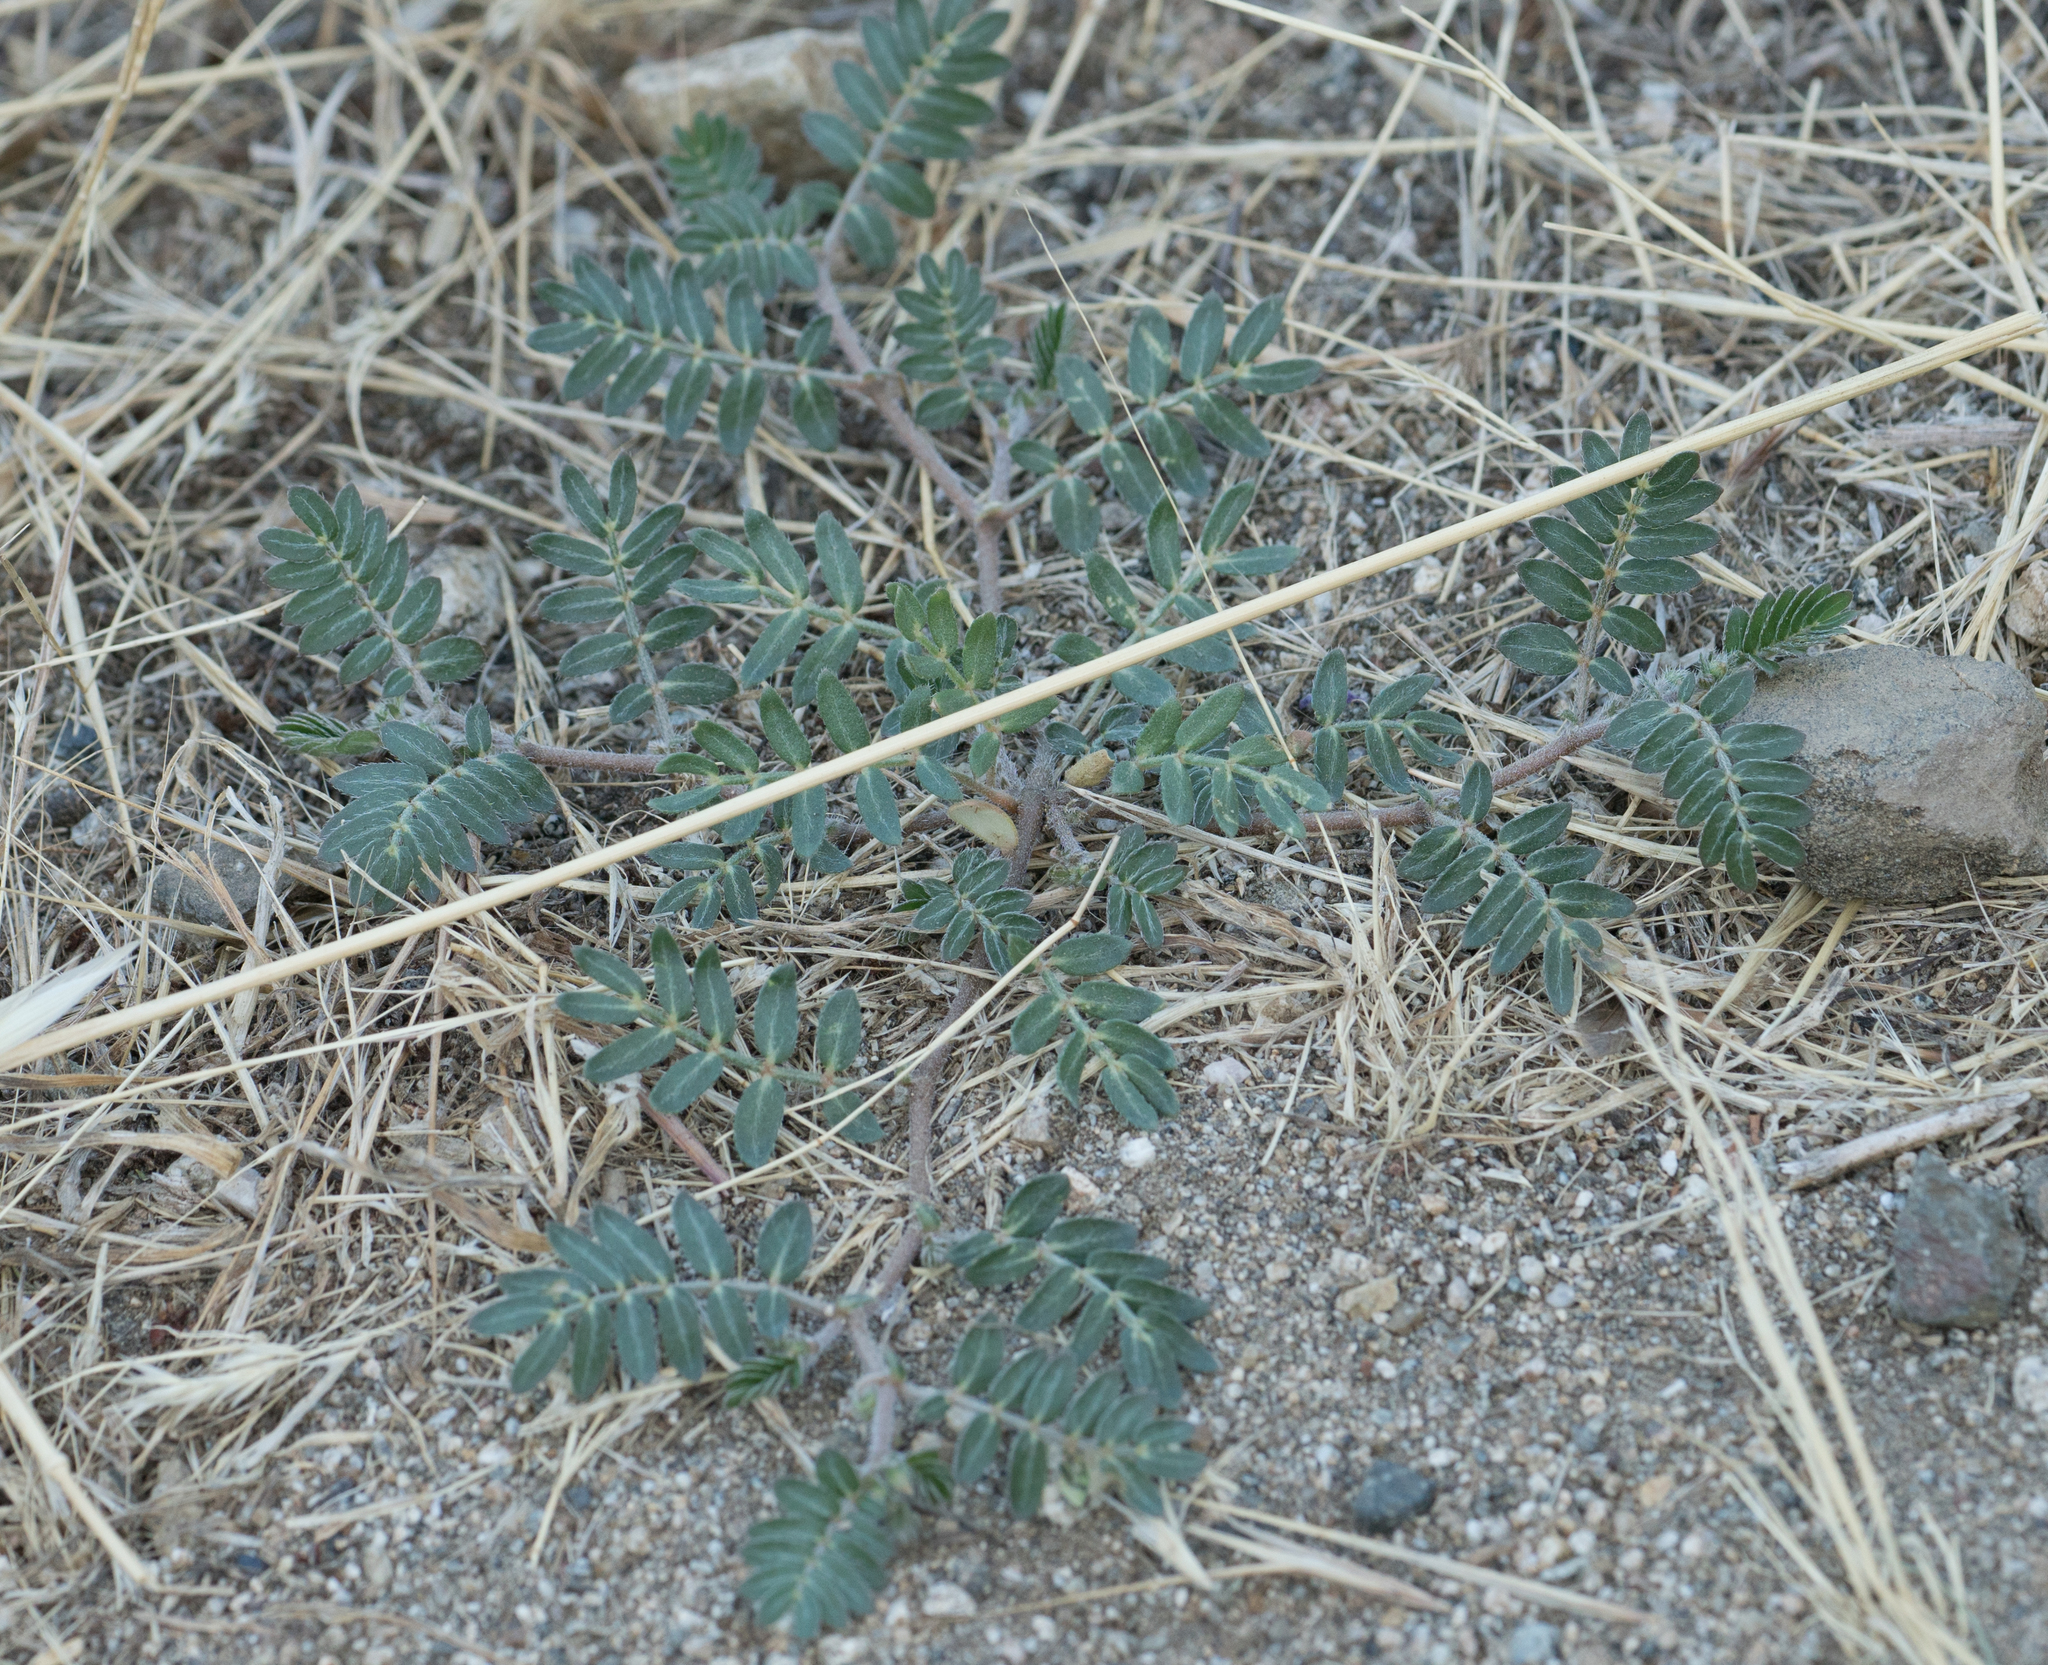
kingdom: Plantae
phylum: Tracheophyta
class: Magnoliopsida
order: Zygophyllales
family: Zygophyllaceae
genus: Tribulus
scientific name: Tribulus terrestris
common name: Puncturevine
